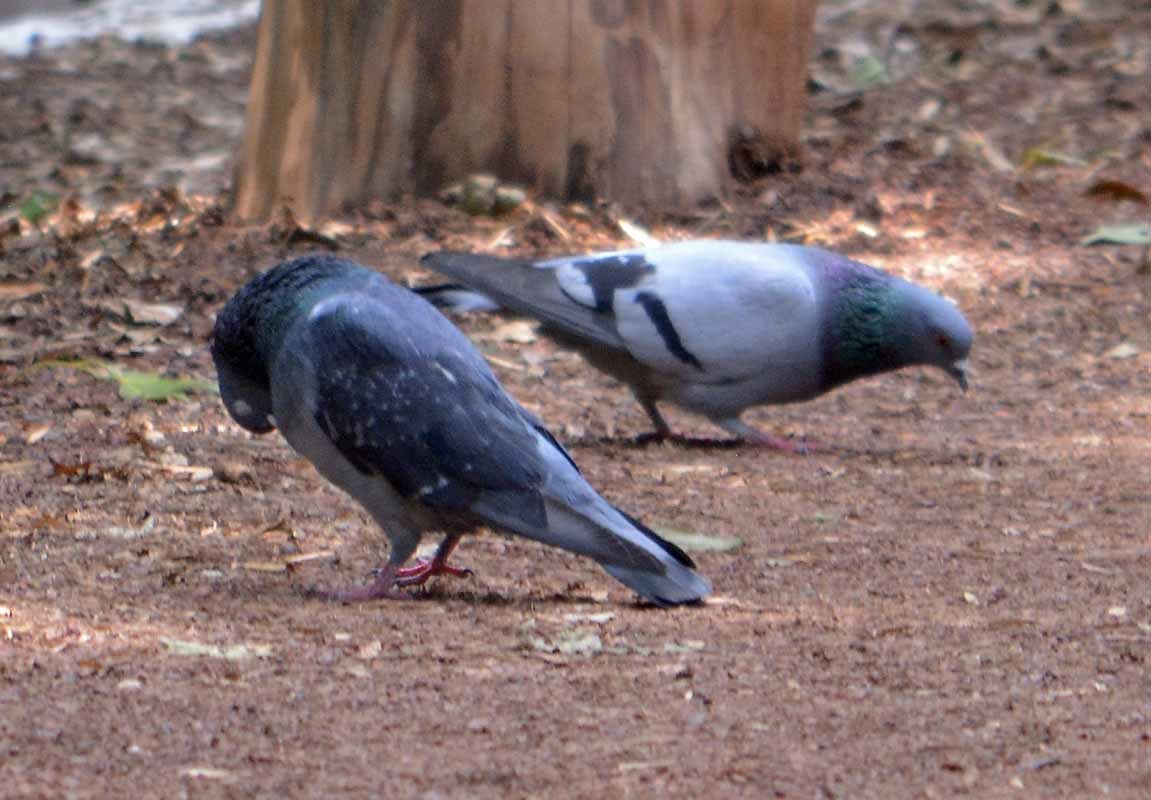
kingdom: Animalia
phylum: Chordata
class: Aves
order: Columbiformes
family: Columbidae
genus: Columba
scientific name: Columba livia
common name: Rock pigeon
